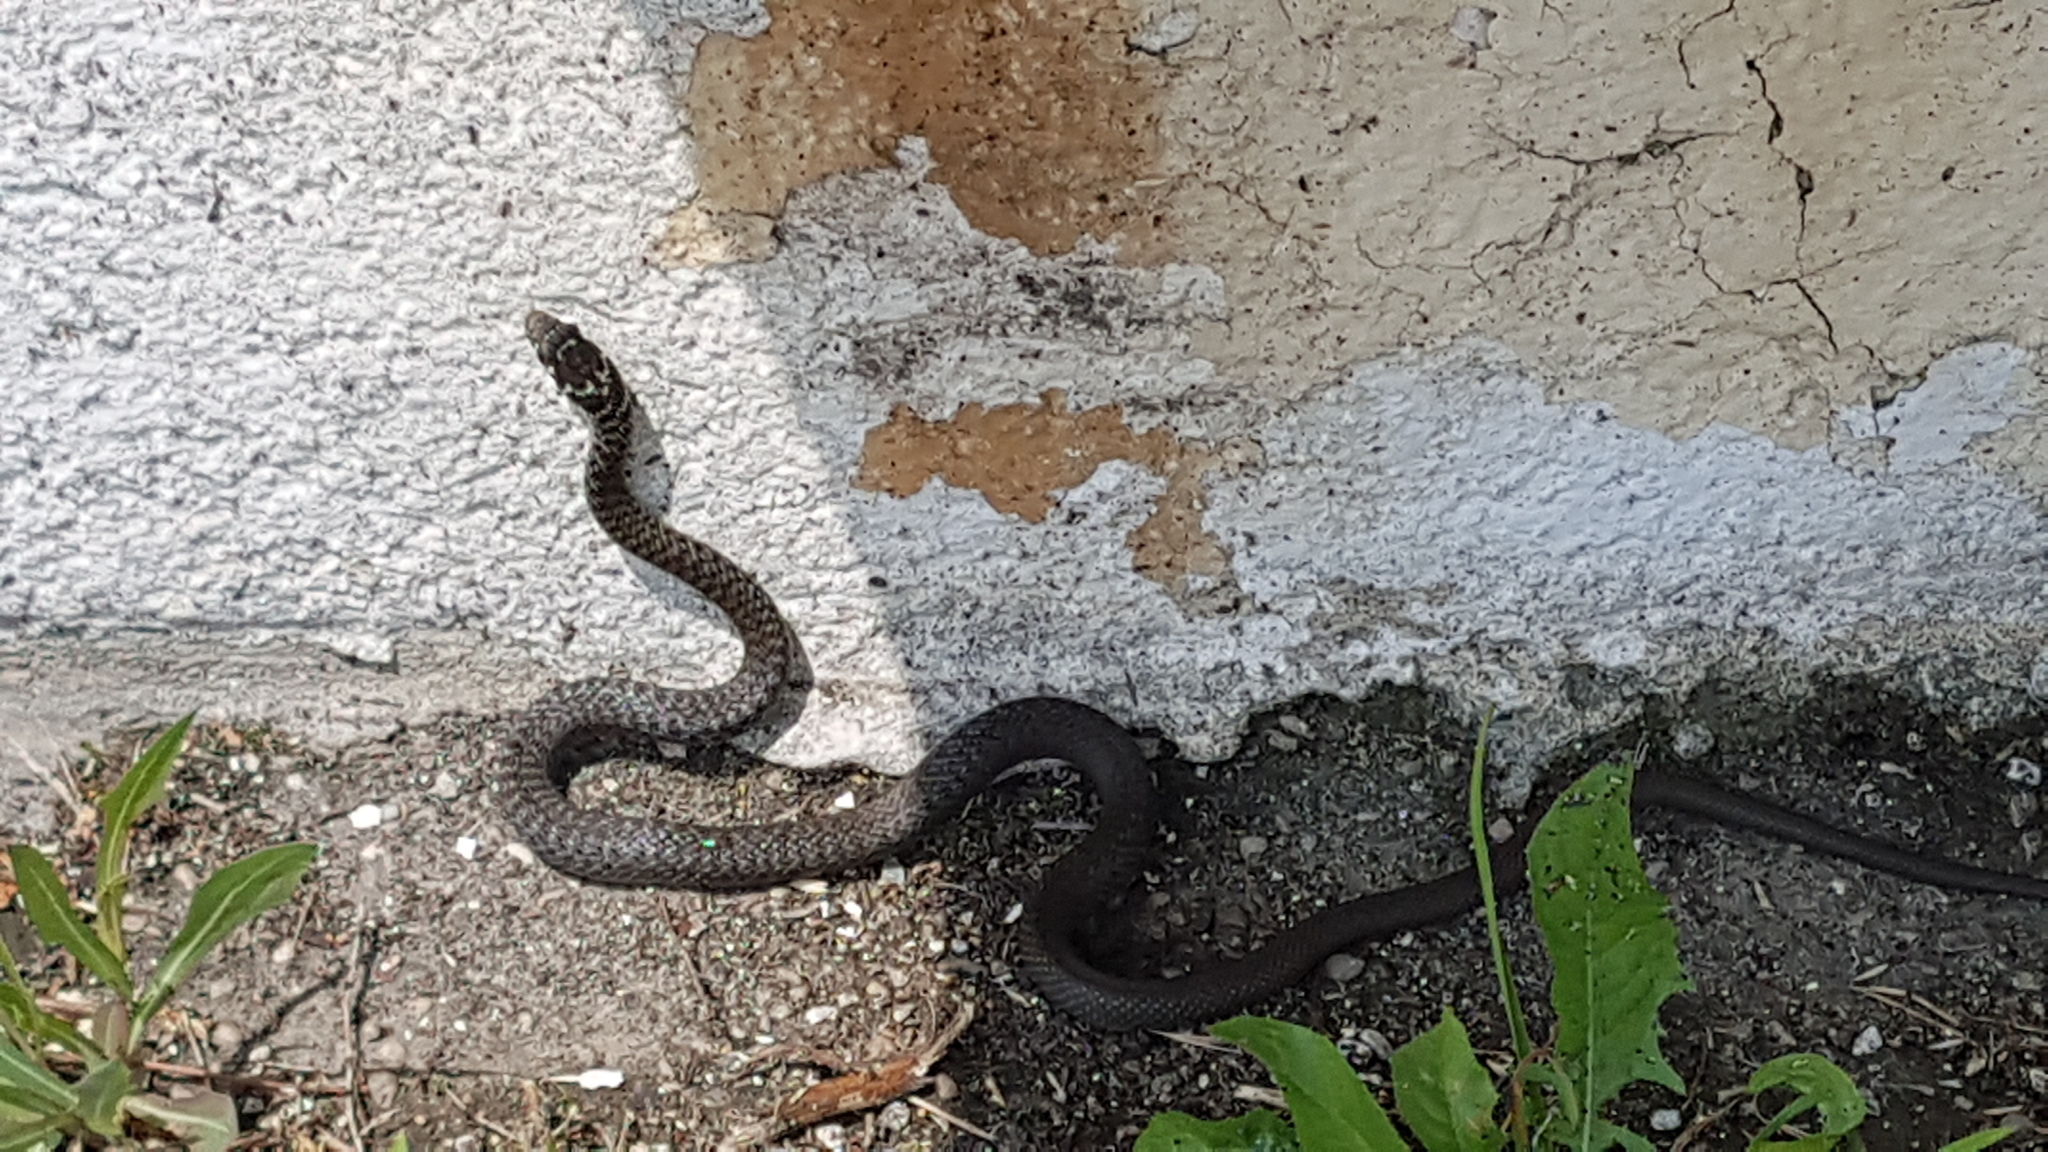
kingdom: Animalia
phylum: Chordata
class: Squamata
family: Colubridae
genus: Hierophis
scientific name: Hierophis viridiflavus
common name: Green whip snake
